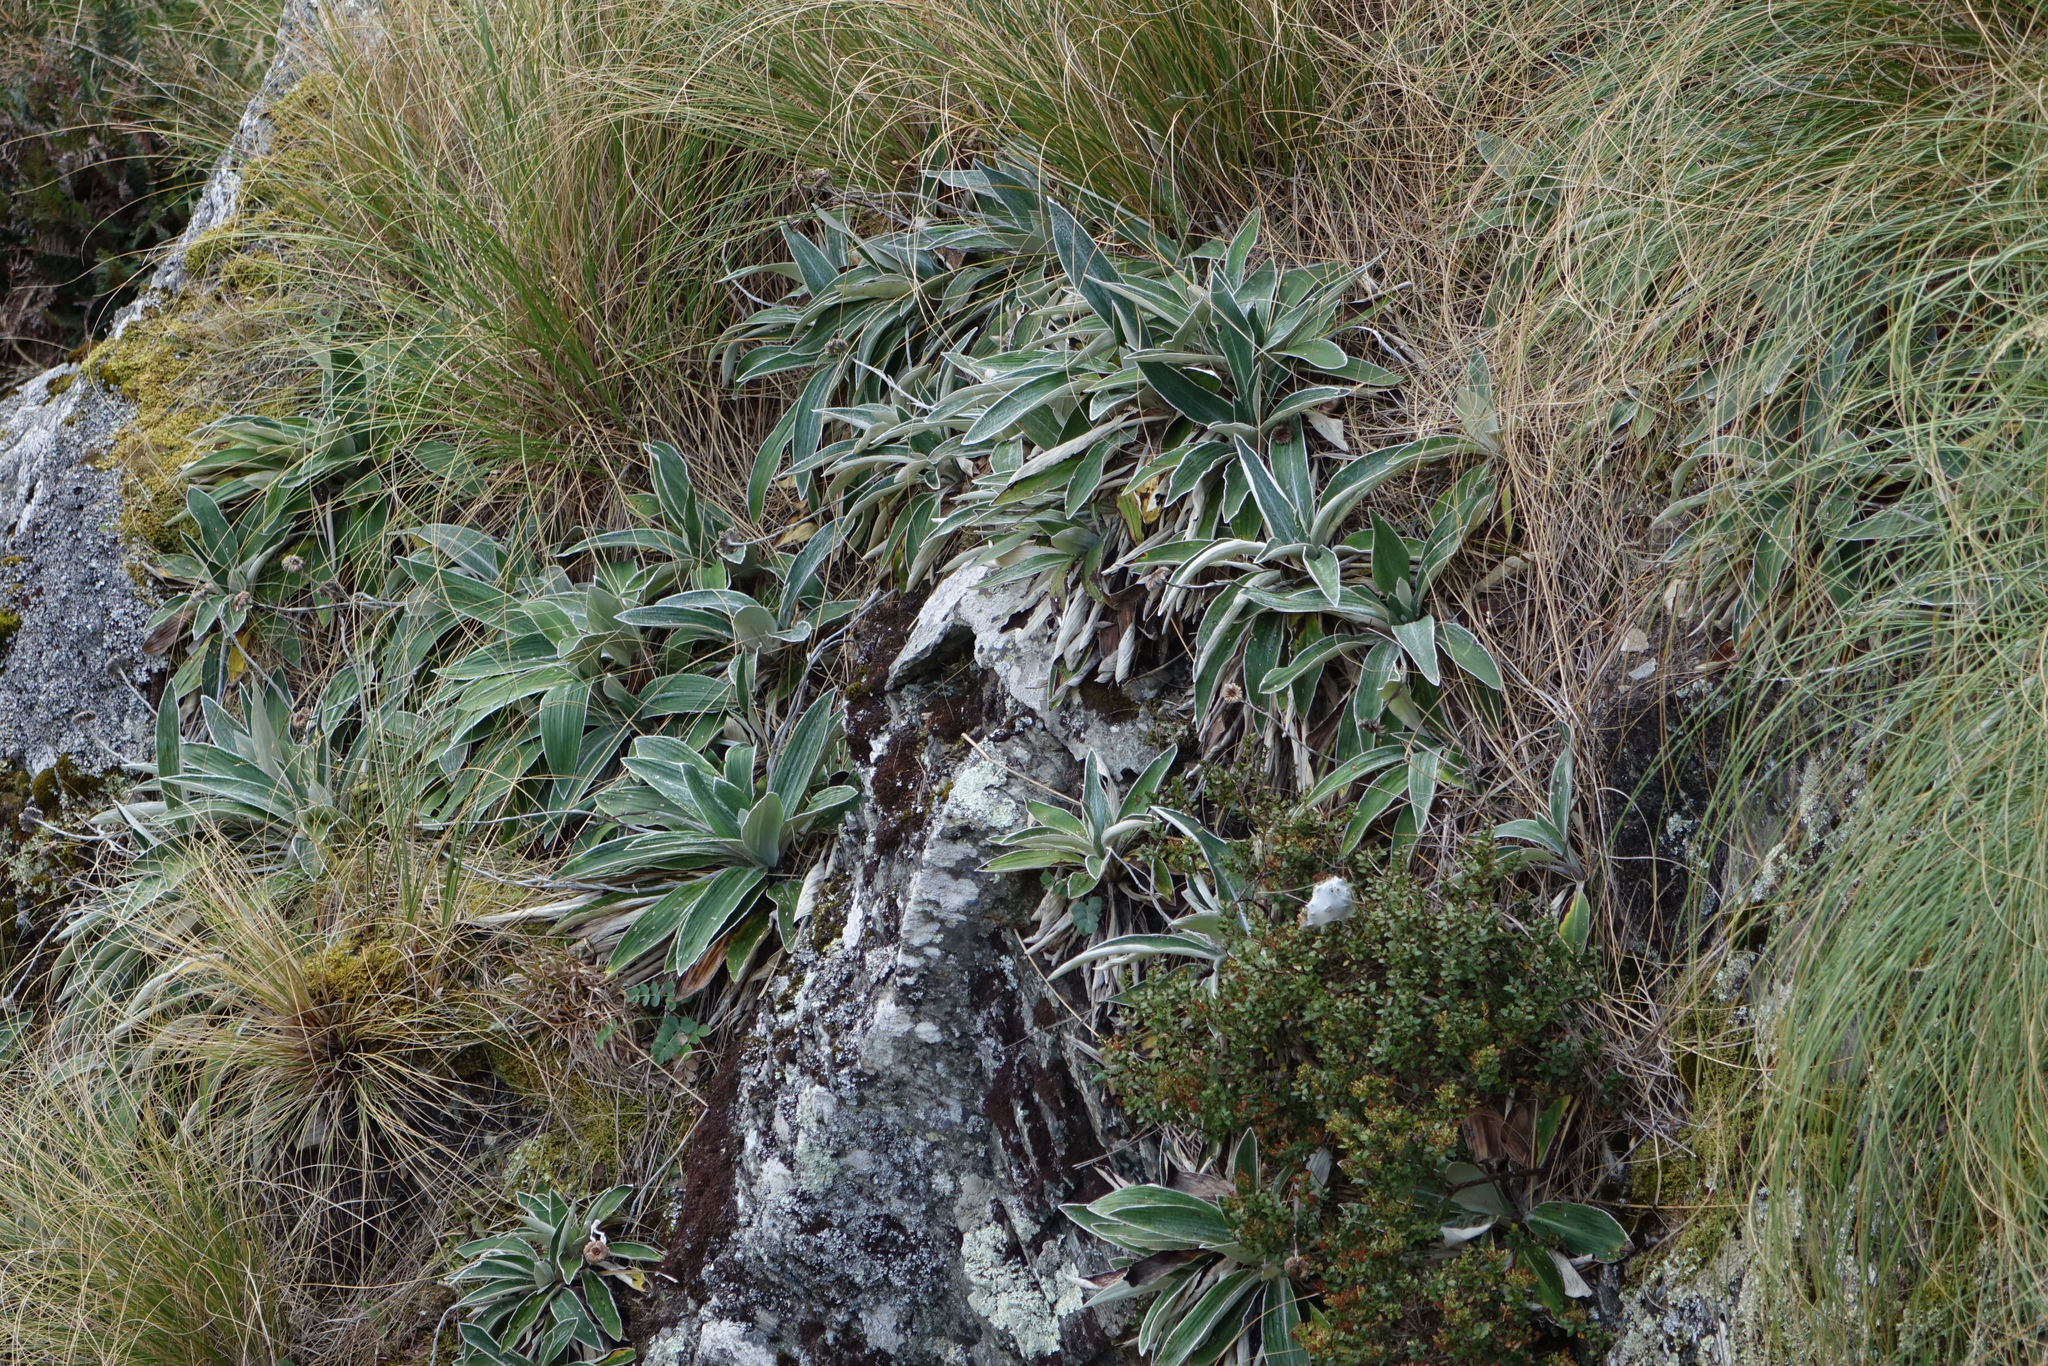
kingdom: Plantae
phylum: Tracheophyta
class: Magnoliopsida
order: Asterales
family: Asteraceae
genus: Celmisia
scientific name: Celmisia hookeri
